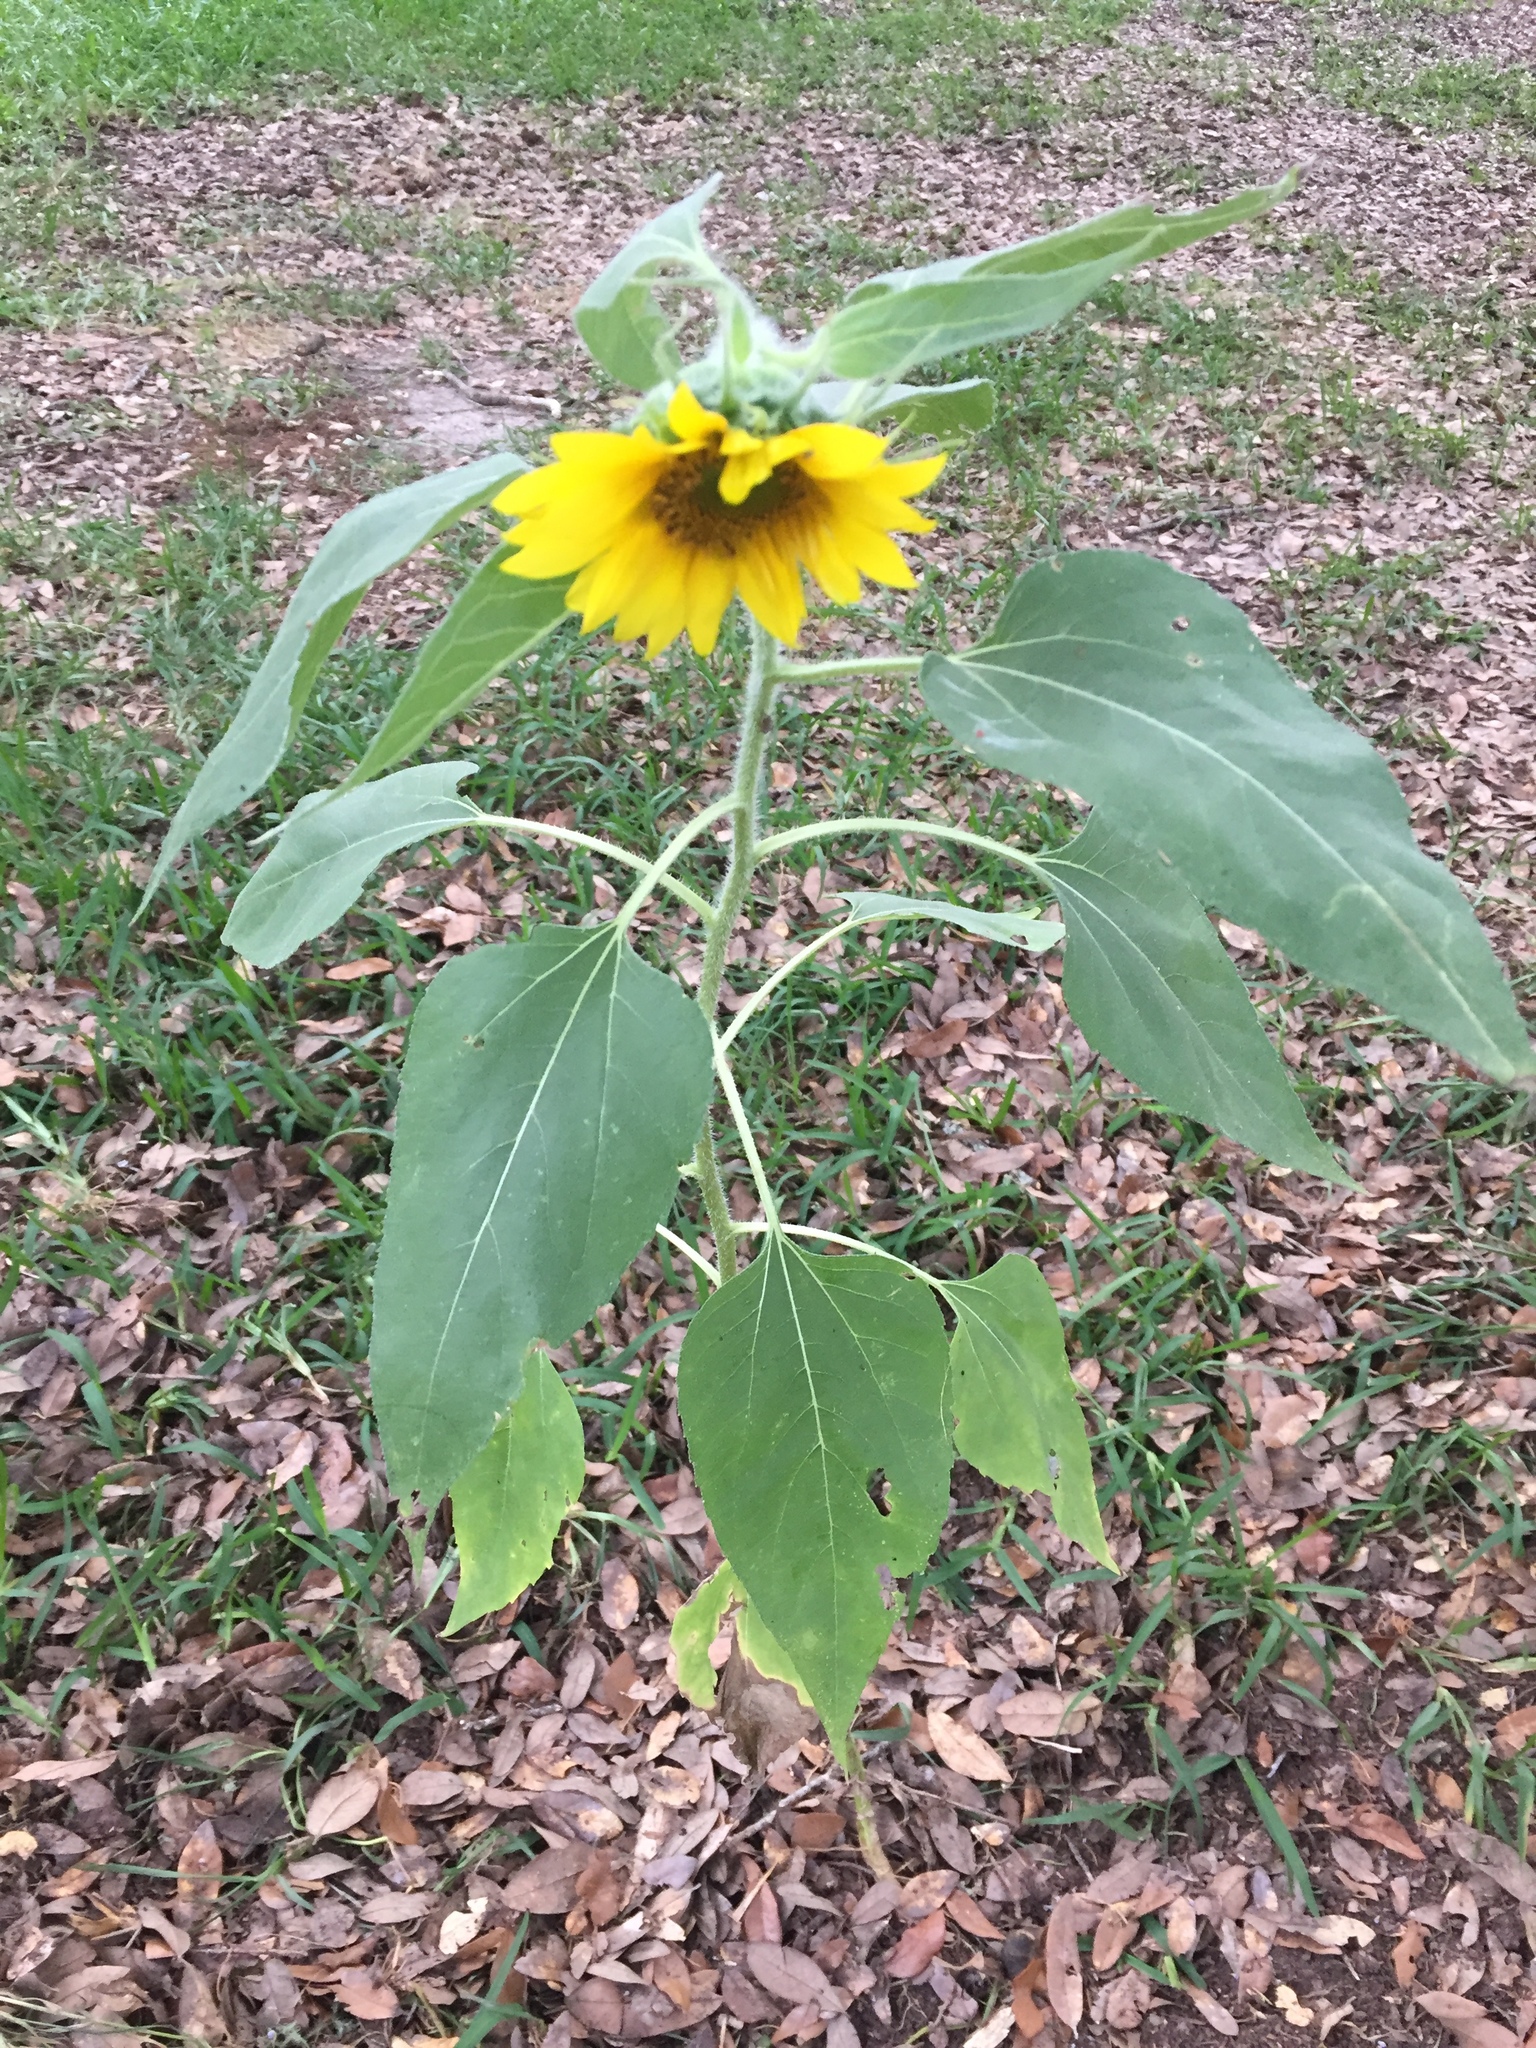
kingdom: Plantae
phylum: Tracheophyta
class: Magnoliopsida
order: Asterales
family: Asteraceae
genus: Helianthus
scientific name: Helianthus annuus
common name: Sunflower
